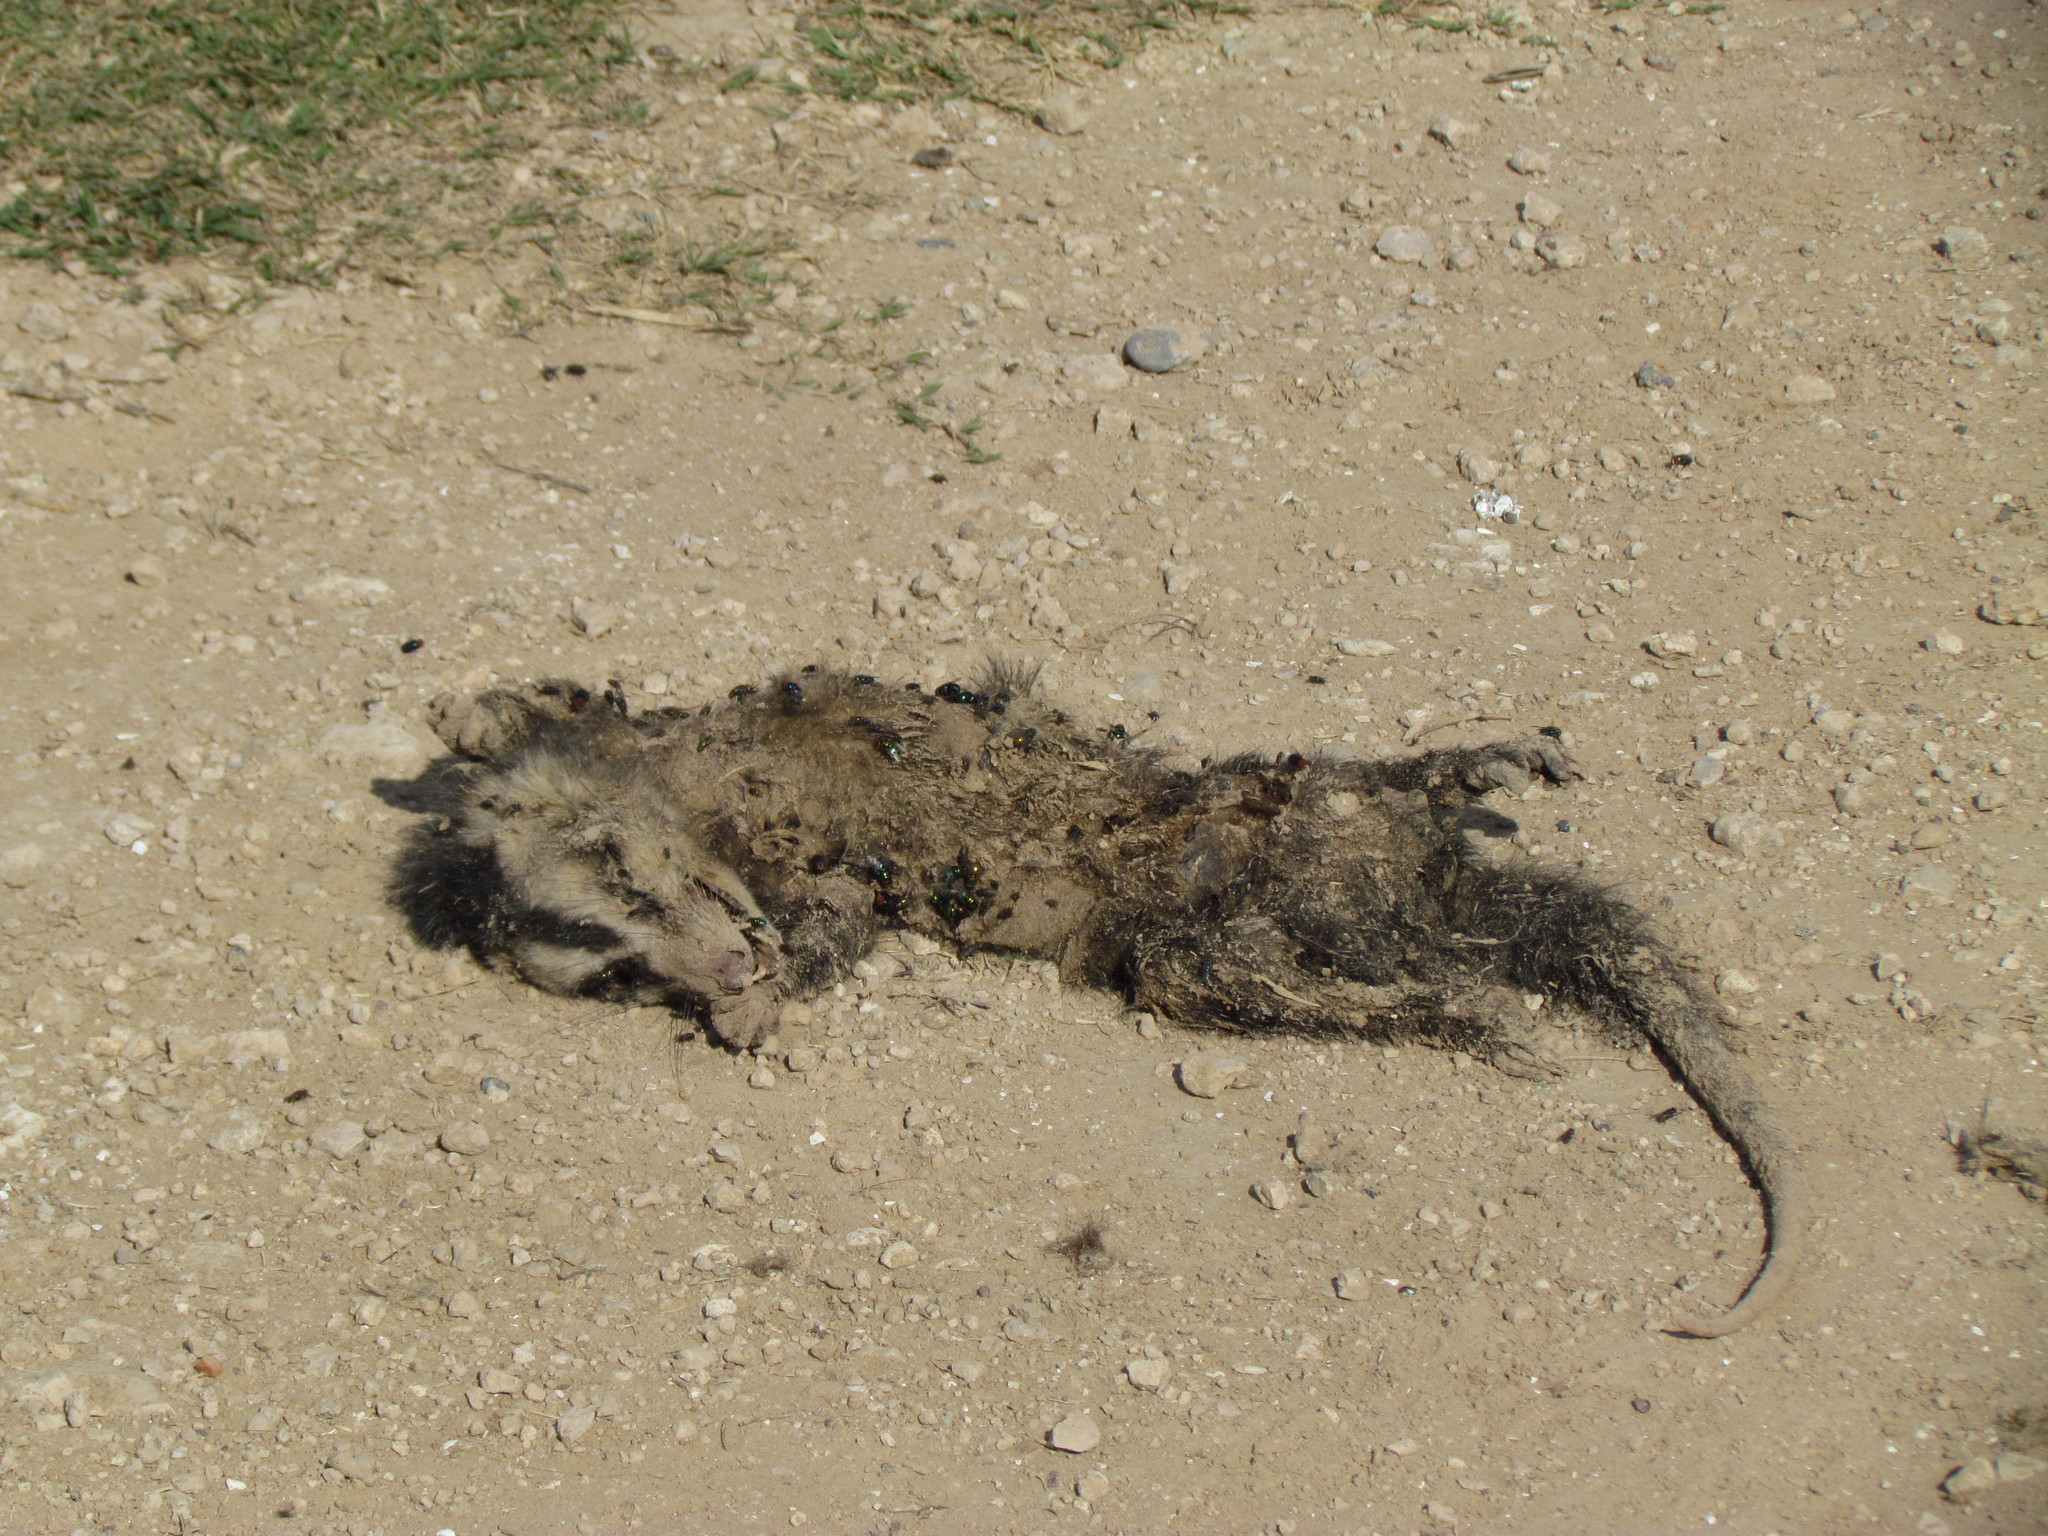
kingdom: Animalia
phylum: Chordata
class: Mammalia
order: Didelphimorphia
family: Didelphidae
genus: Didelphis
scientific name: Didelphis albiventris
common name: White-eared opossum
